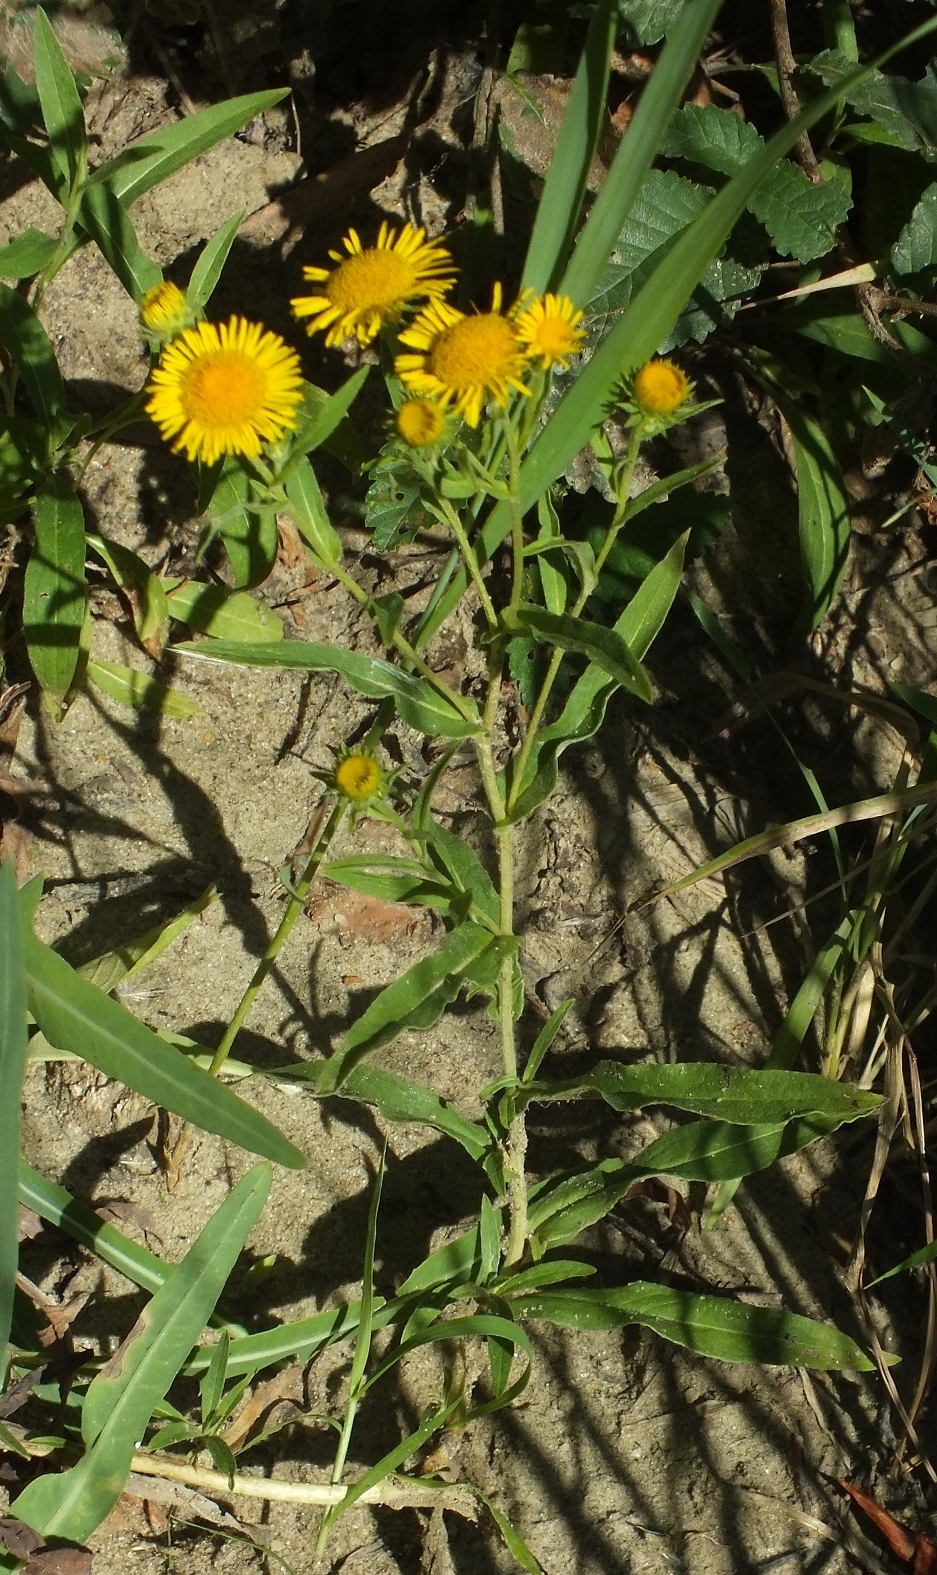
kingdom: Plantae
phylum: Tracheophyta
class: Magnoliopsida
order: Asterales
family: Asteraceae
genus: Pentanema
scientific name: Pentanema britannicum
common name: British elecampane
